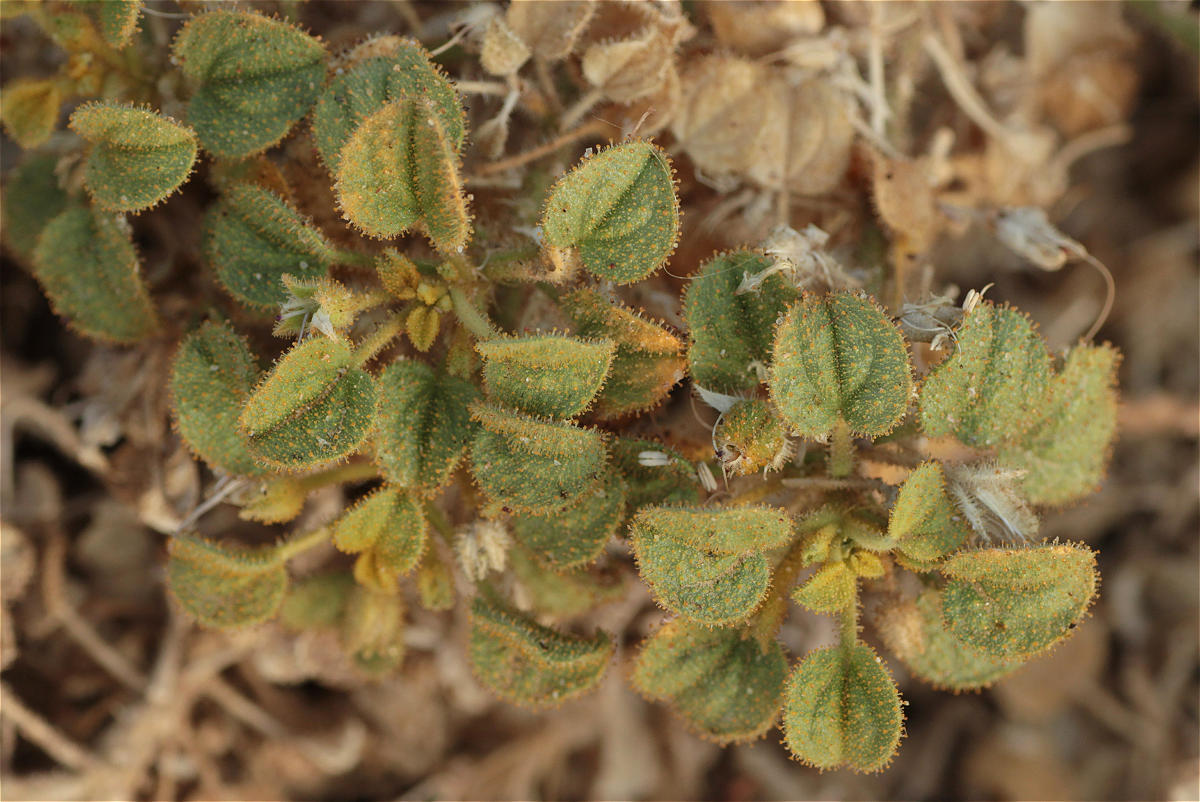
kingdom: Plantae
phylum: Tracheophyta
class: Magnoliopsida
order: Brassicales
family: Cleomaceae
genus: Rorida
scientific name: Rorida droserifolia
